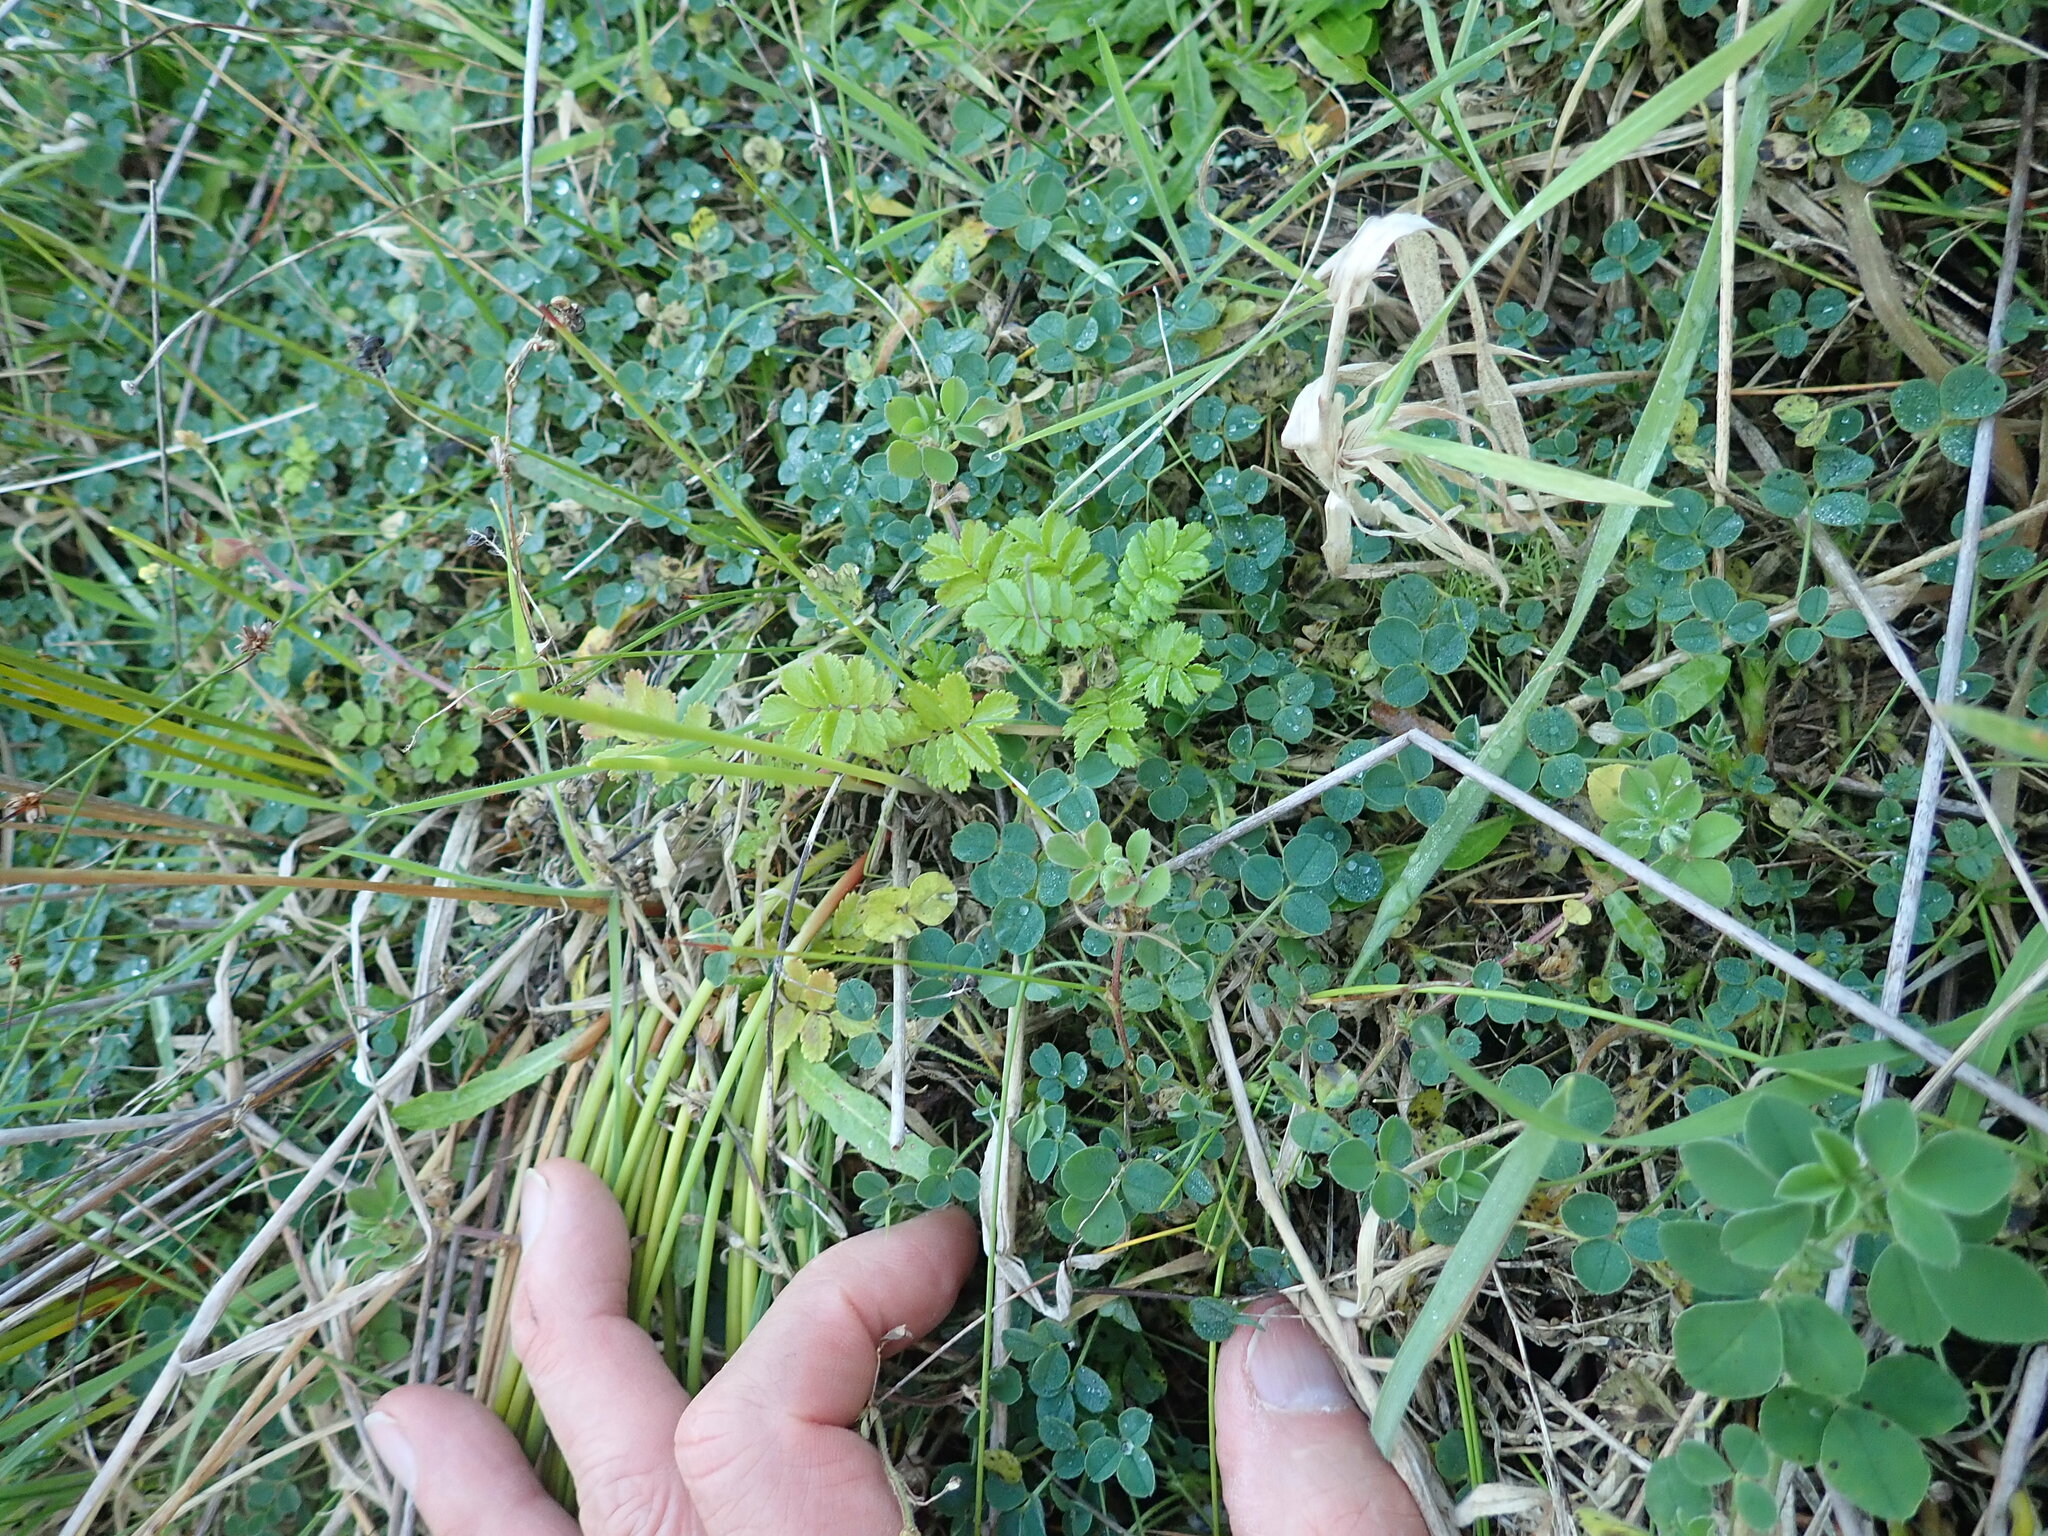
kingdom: Plantae
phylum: Tracheophyta
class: Magnoliopsida
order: Rosales
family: Rosaceae
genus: Acaena
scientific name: Acaena novae-zelandiae
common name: Pirri-pirri-bur
